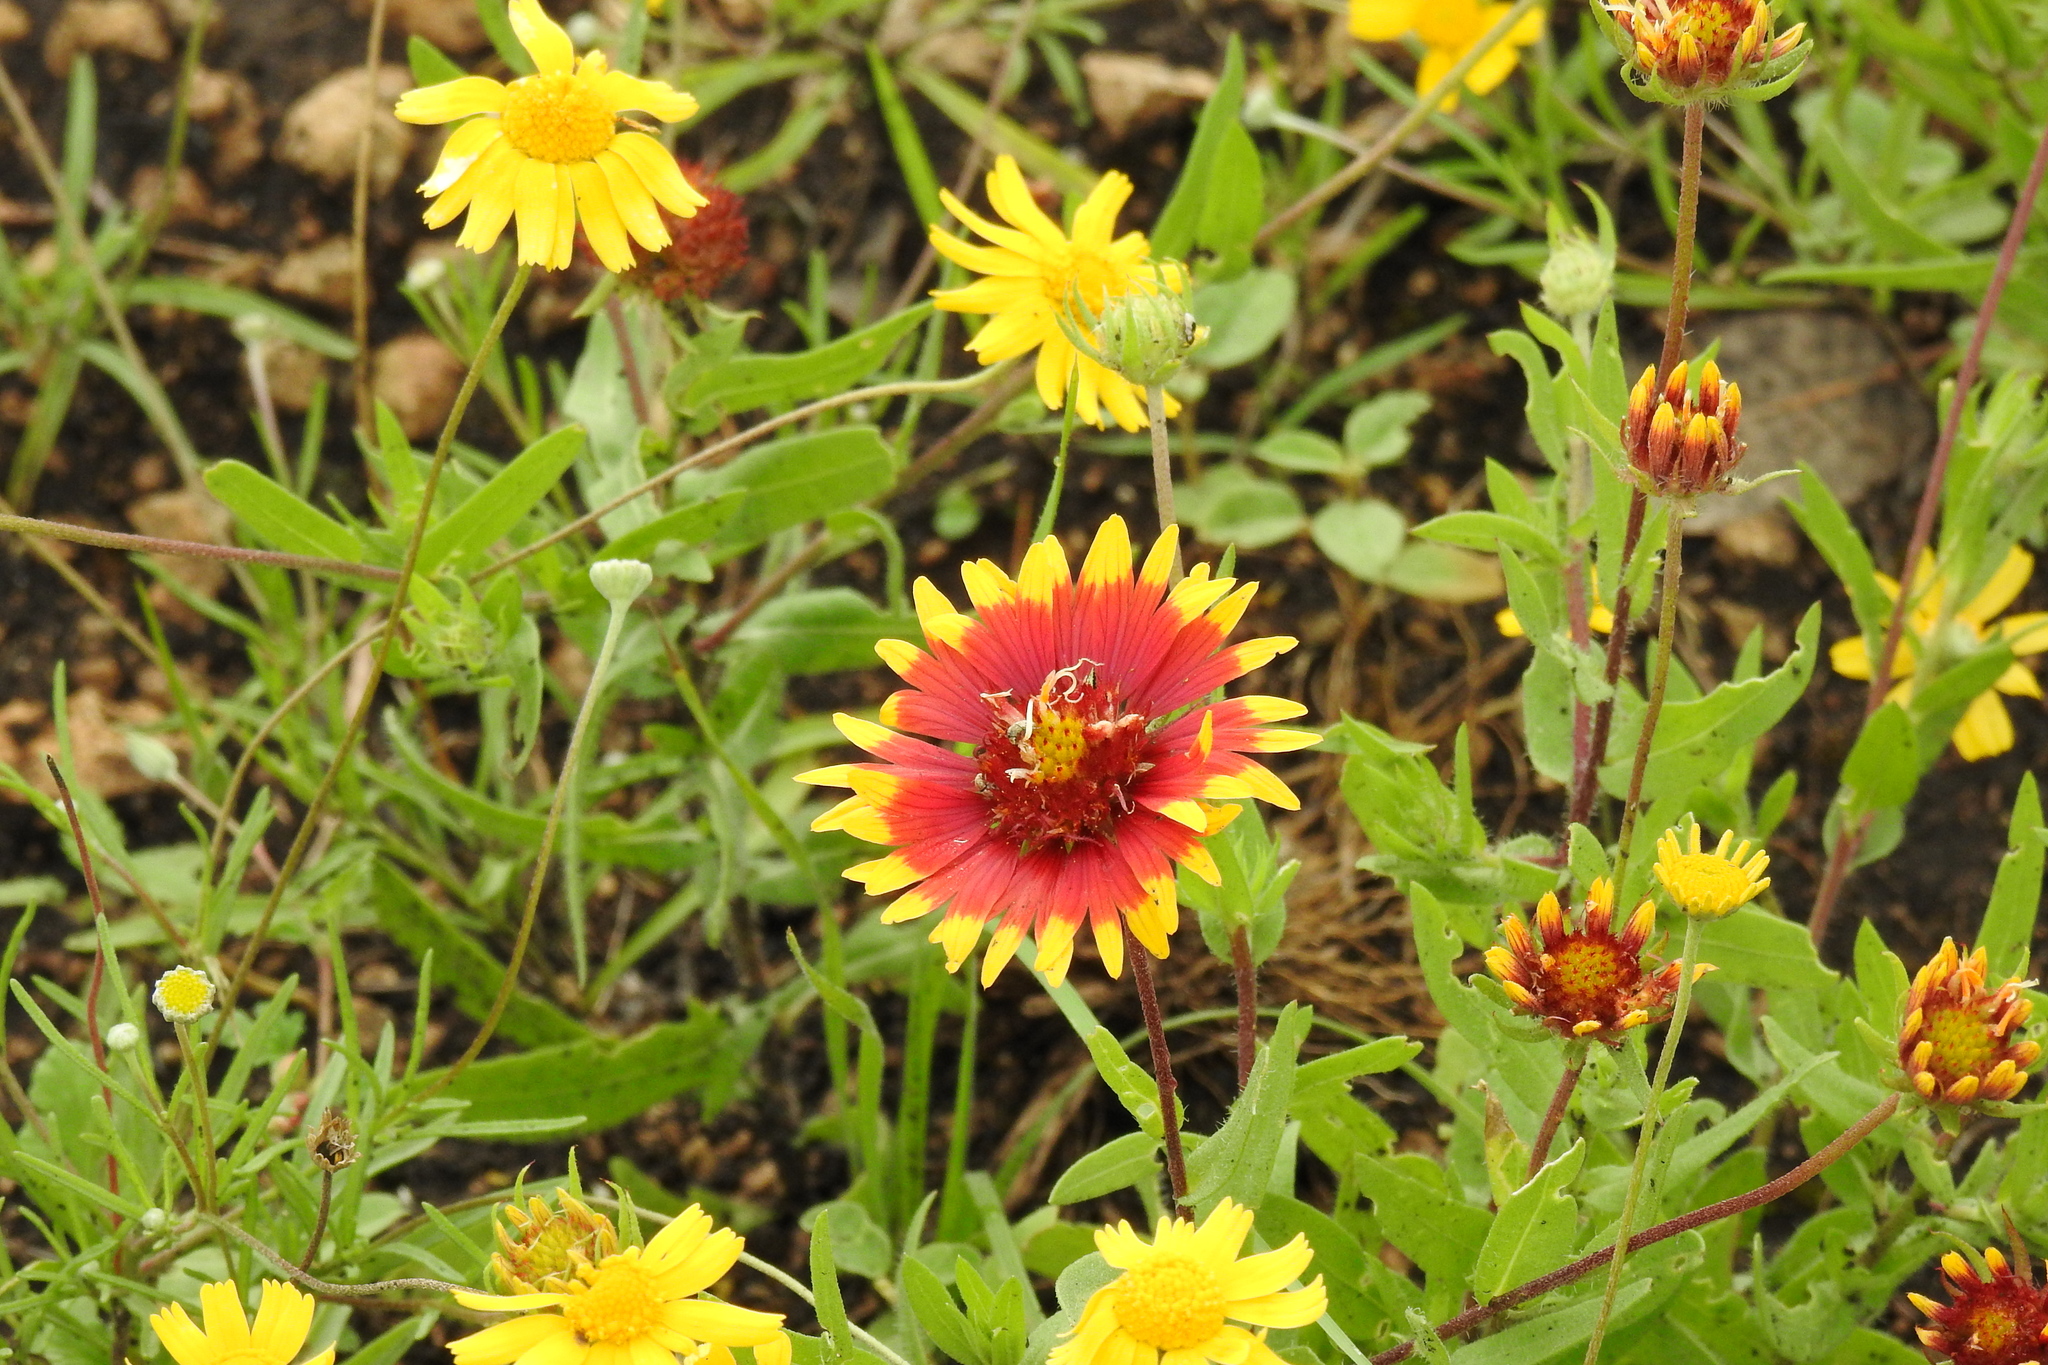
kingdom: Plantae
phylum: Tracheophyta
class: Magnoliopsida
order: Asterales
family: Asteraceae
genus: Gaillardia
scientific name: Gaillardia pulchella
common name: Firewheel
